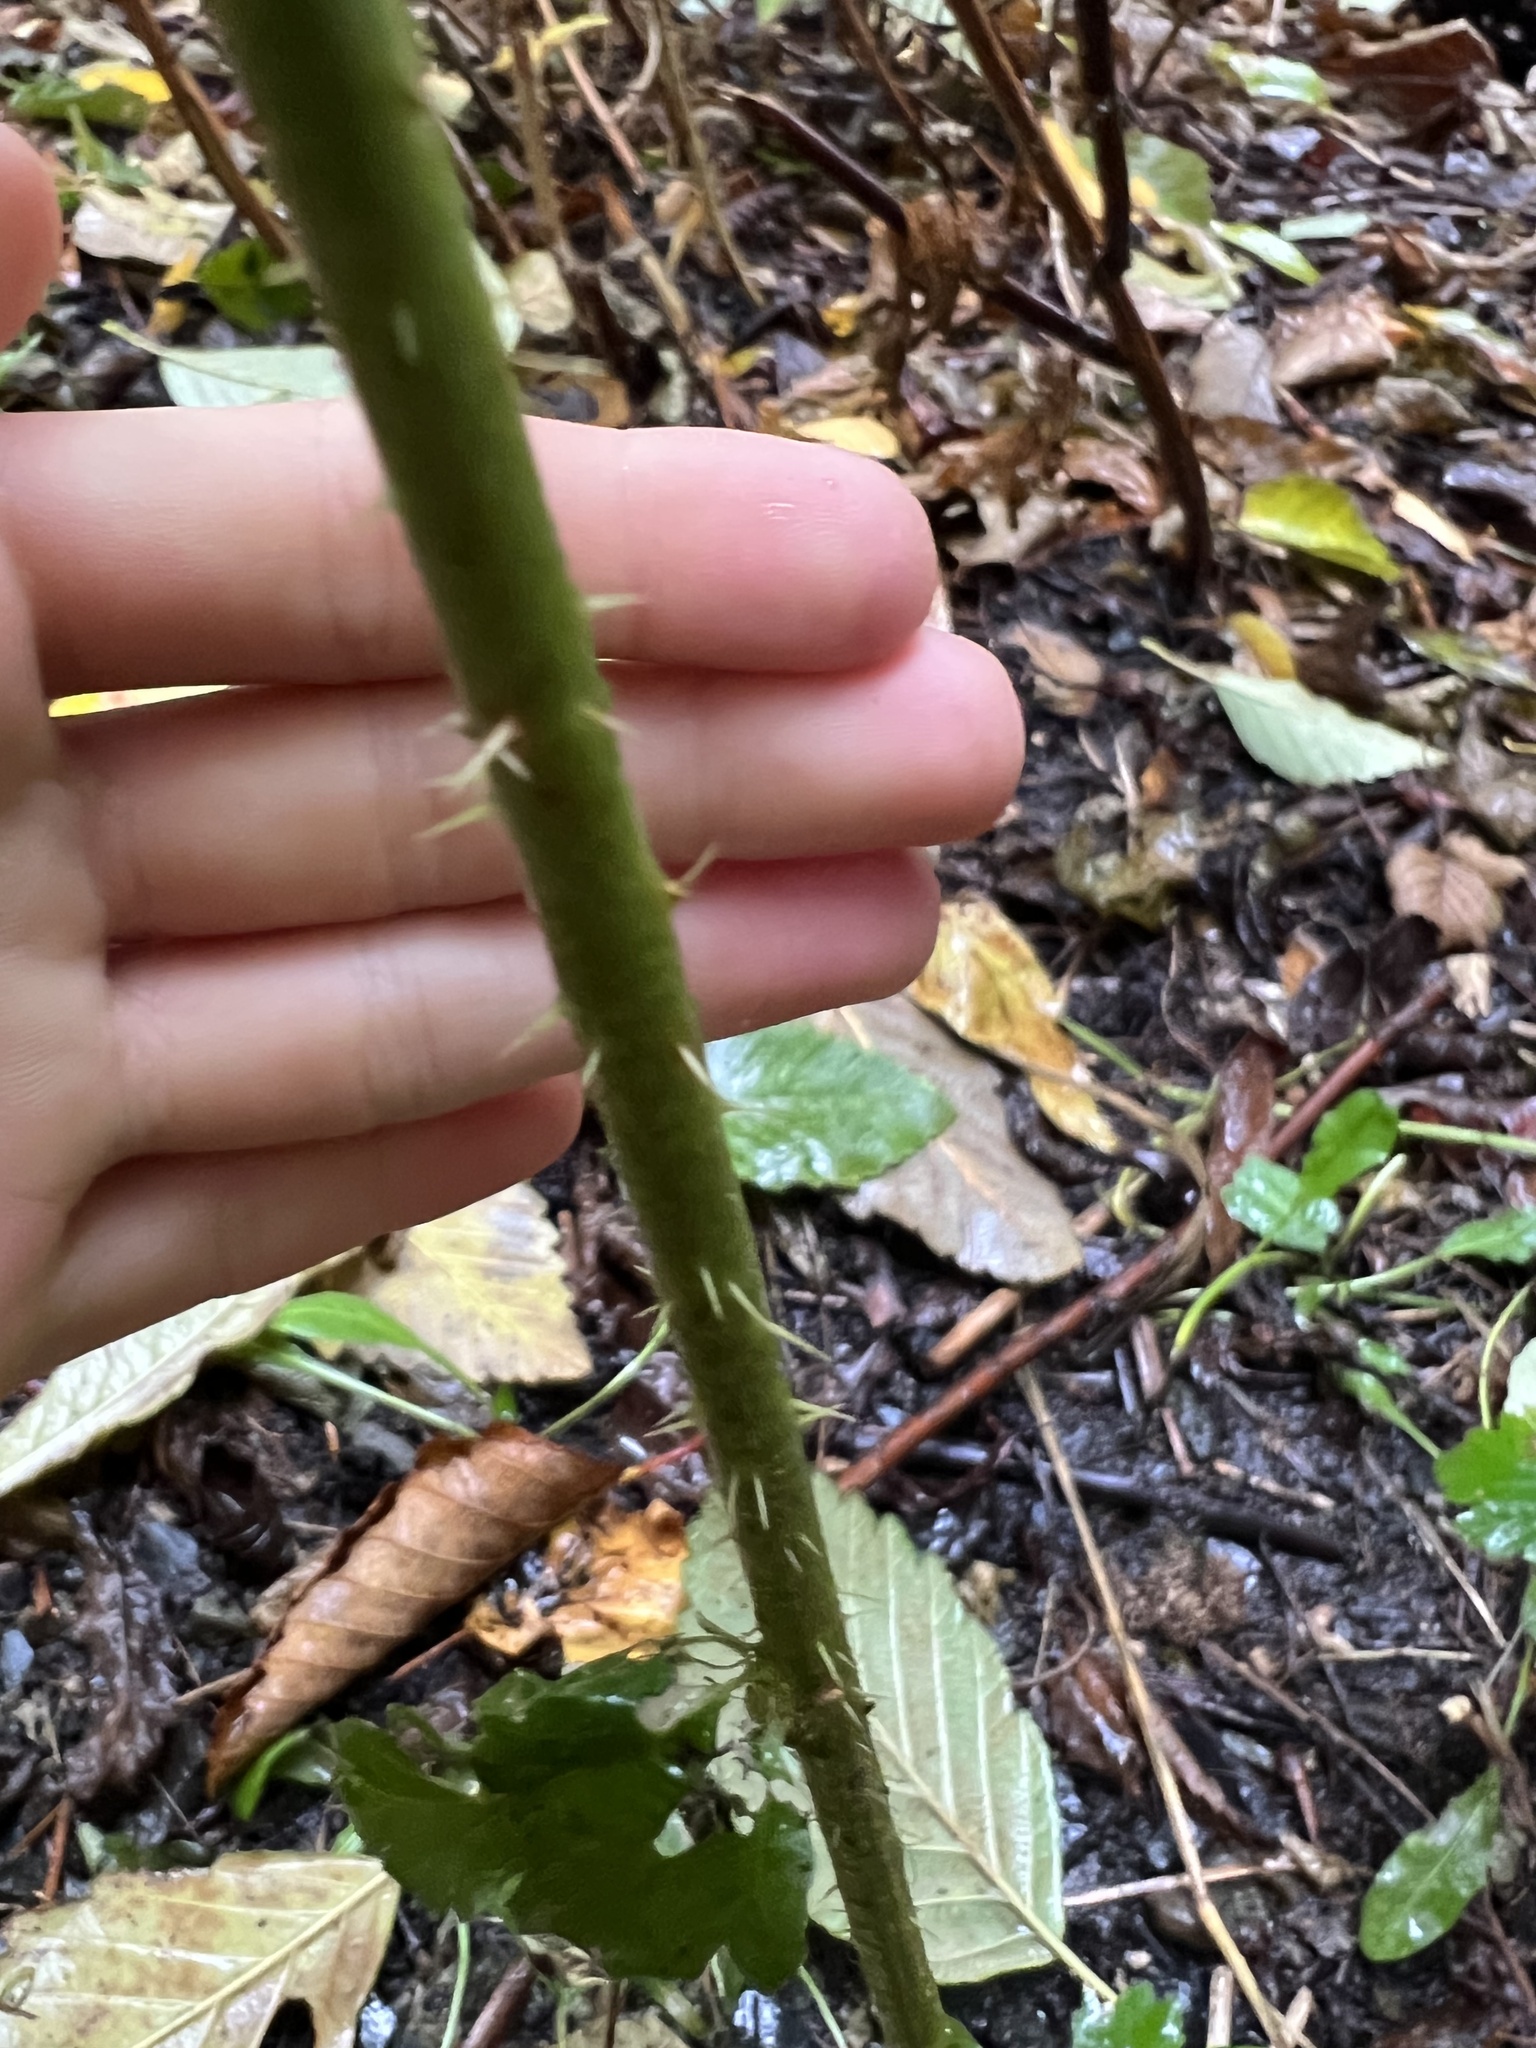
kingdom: Plantae
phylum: Tracheophyta
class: Magnoliopsida
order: Rosales
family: Rosaceae
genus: Rubus
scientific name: Rubus spectabilis
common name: Salmonberry
